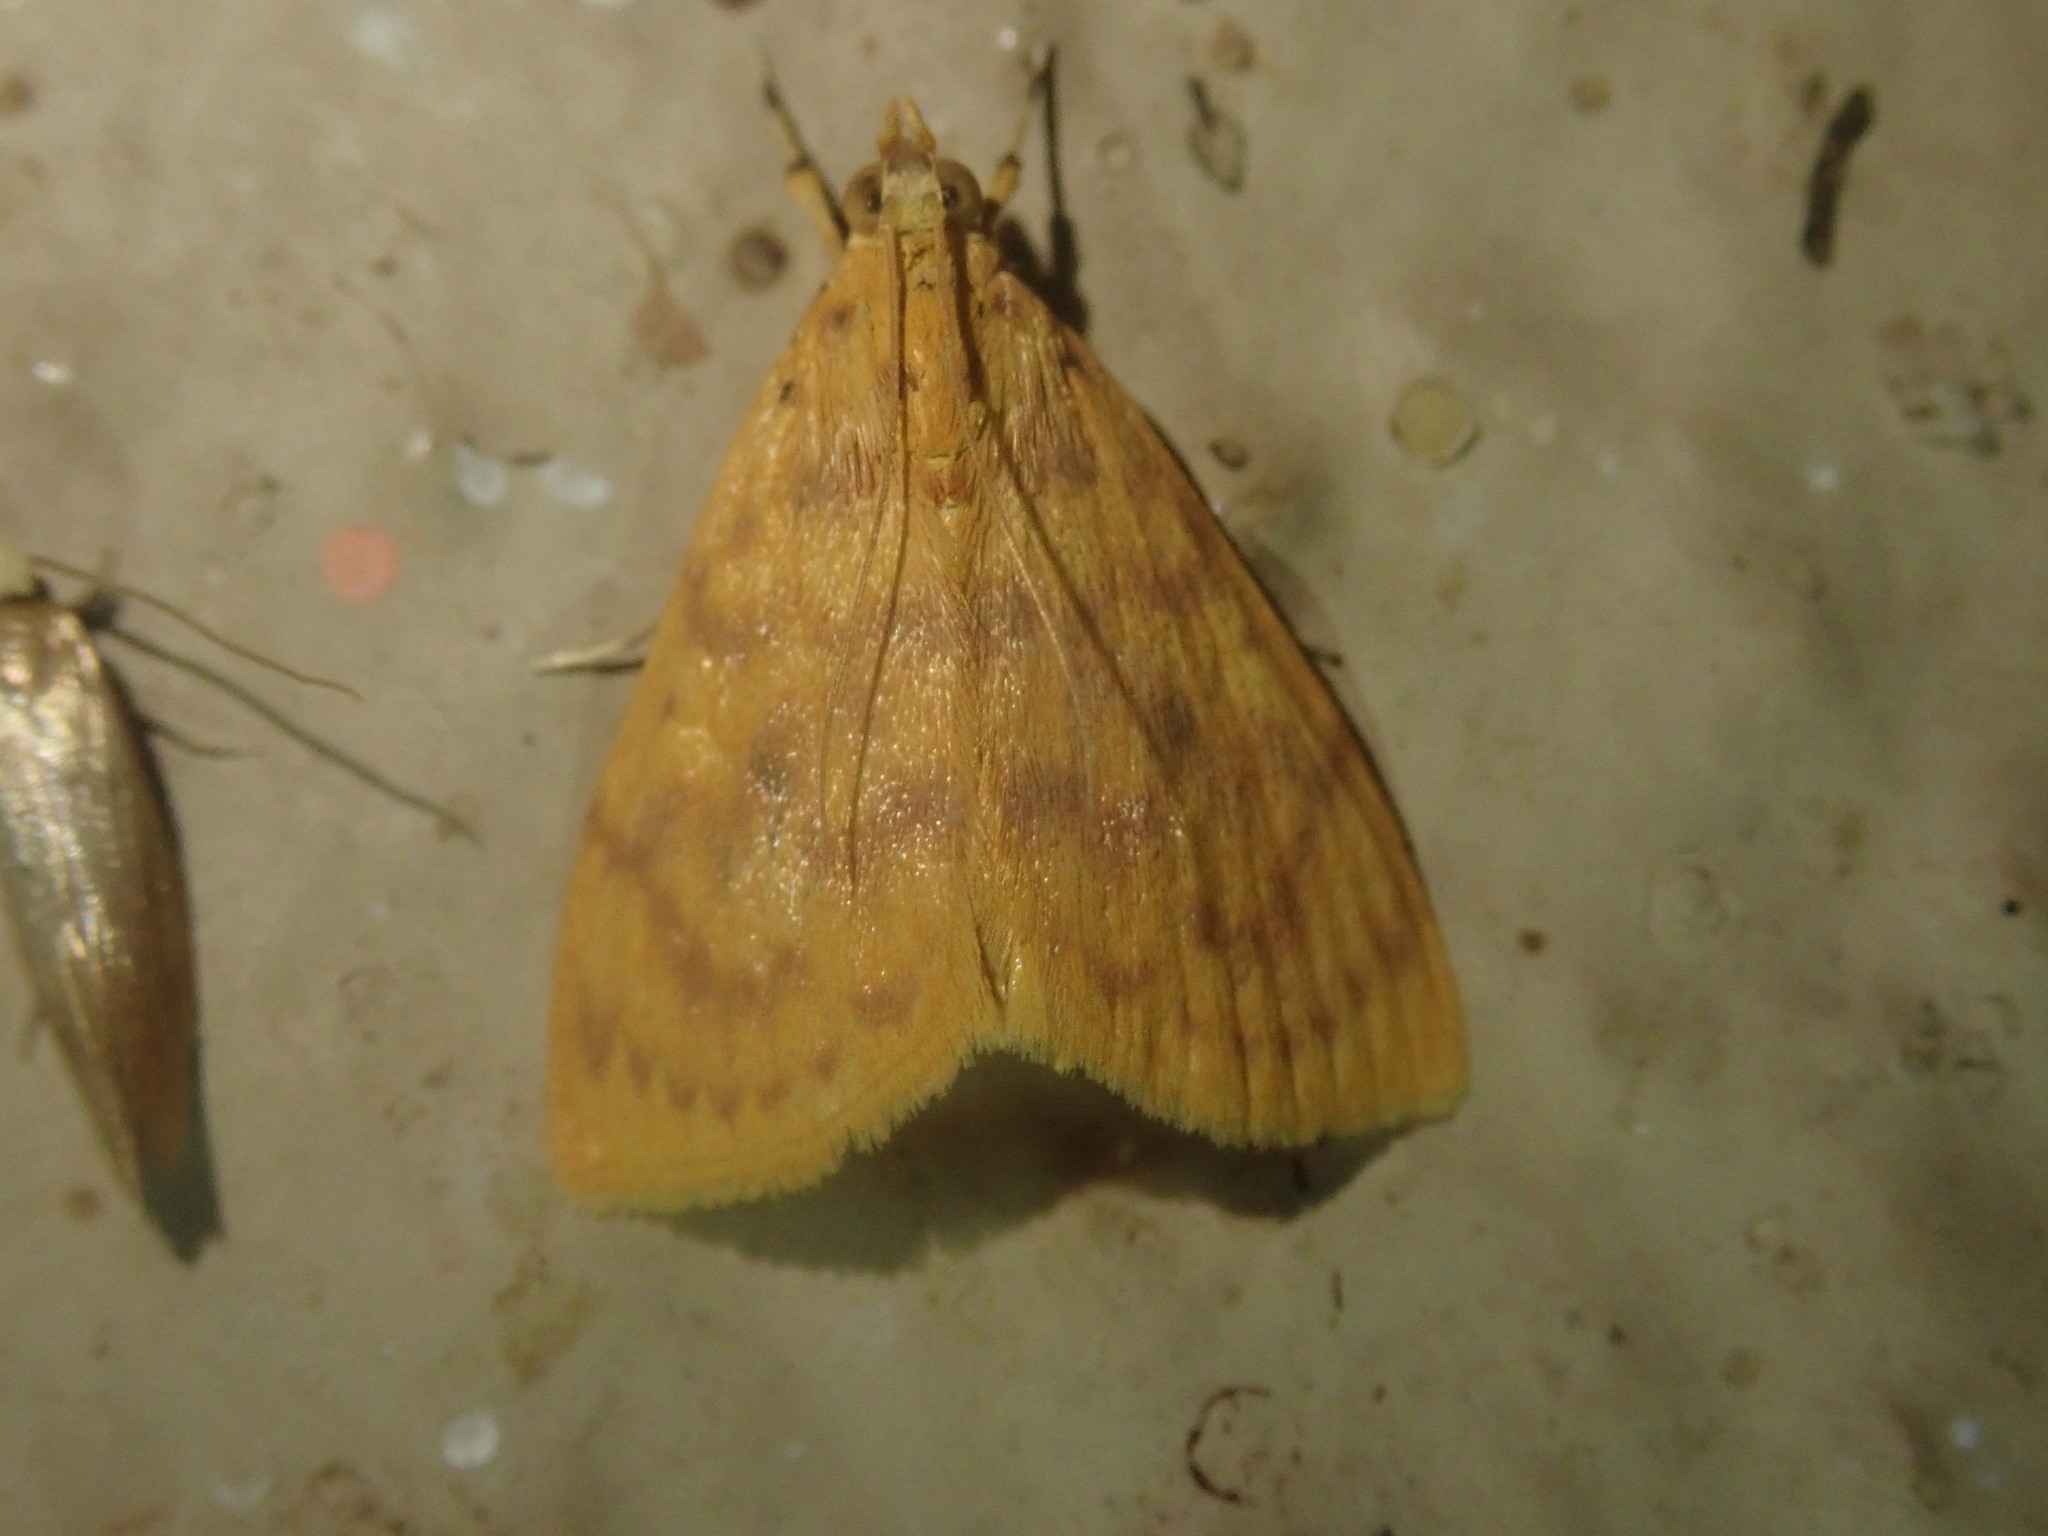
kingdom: Animalia
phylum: Arthropoda
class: Insecta
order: Lepidoptera
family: Crambidae
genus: Epipagis
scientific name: Epipagis olesialis
